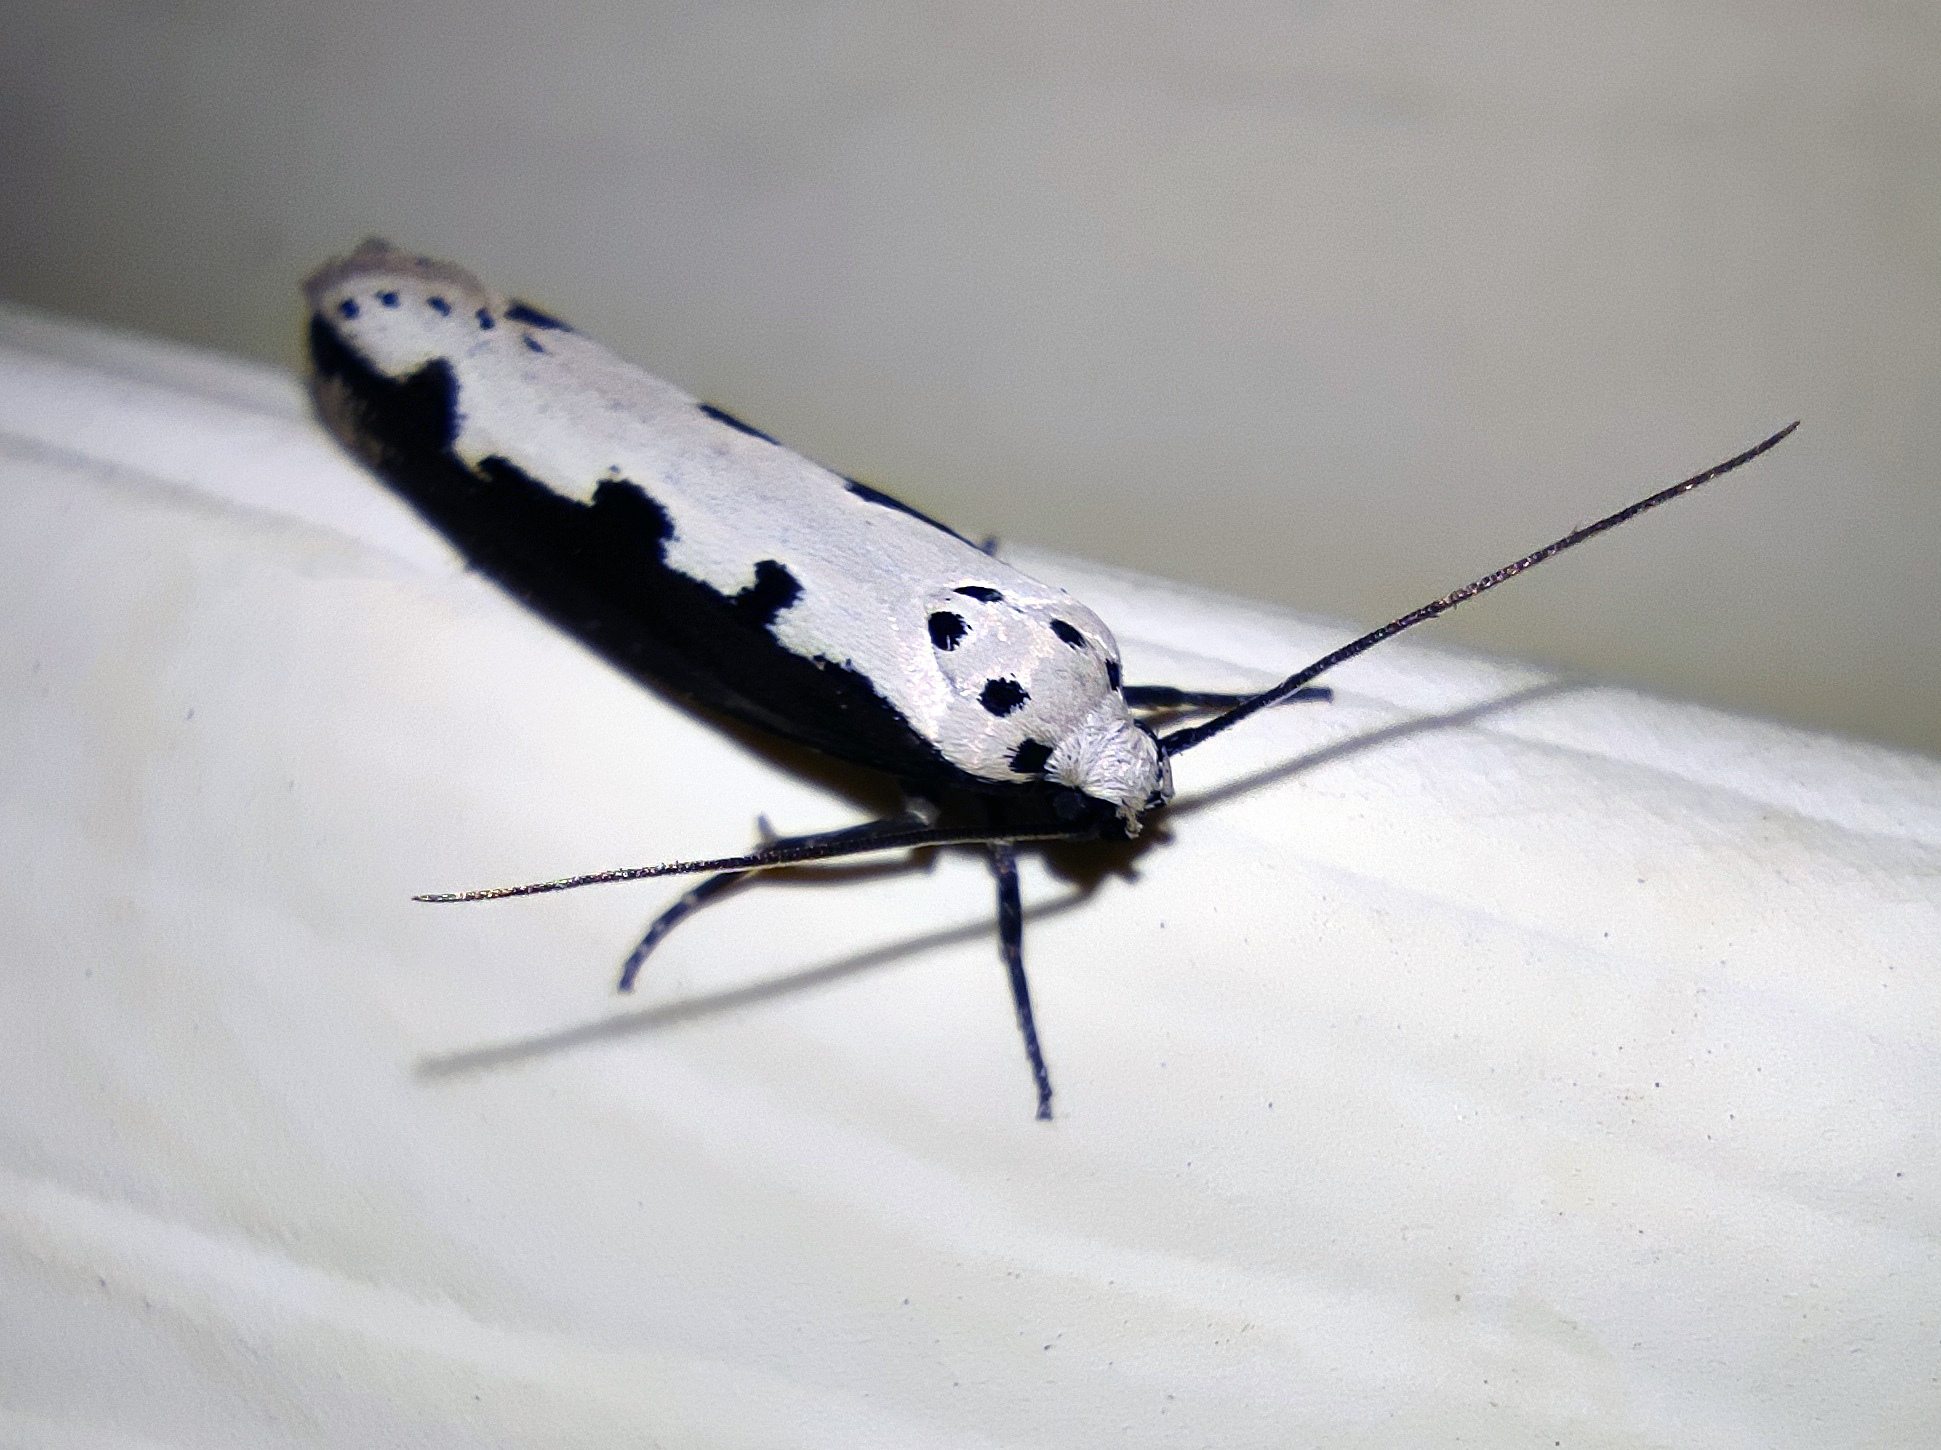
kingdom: Animalia
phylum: Arthropoda
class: Insecta
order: Lepidoptera
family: Ethmiidae
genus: Ethmia
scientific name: Ethmia bipunctella
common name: Bordered ermel
